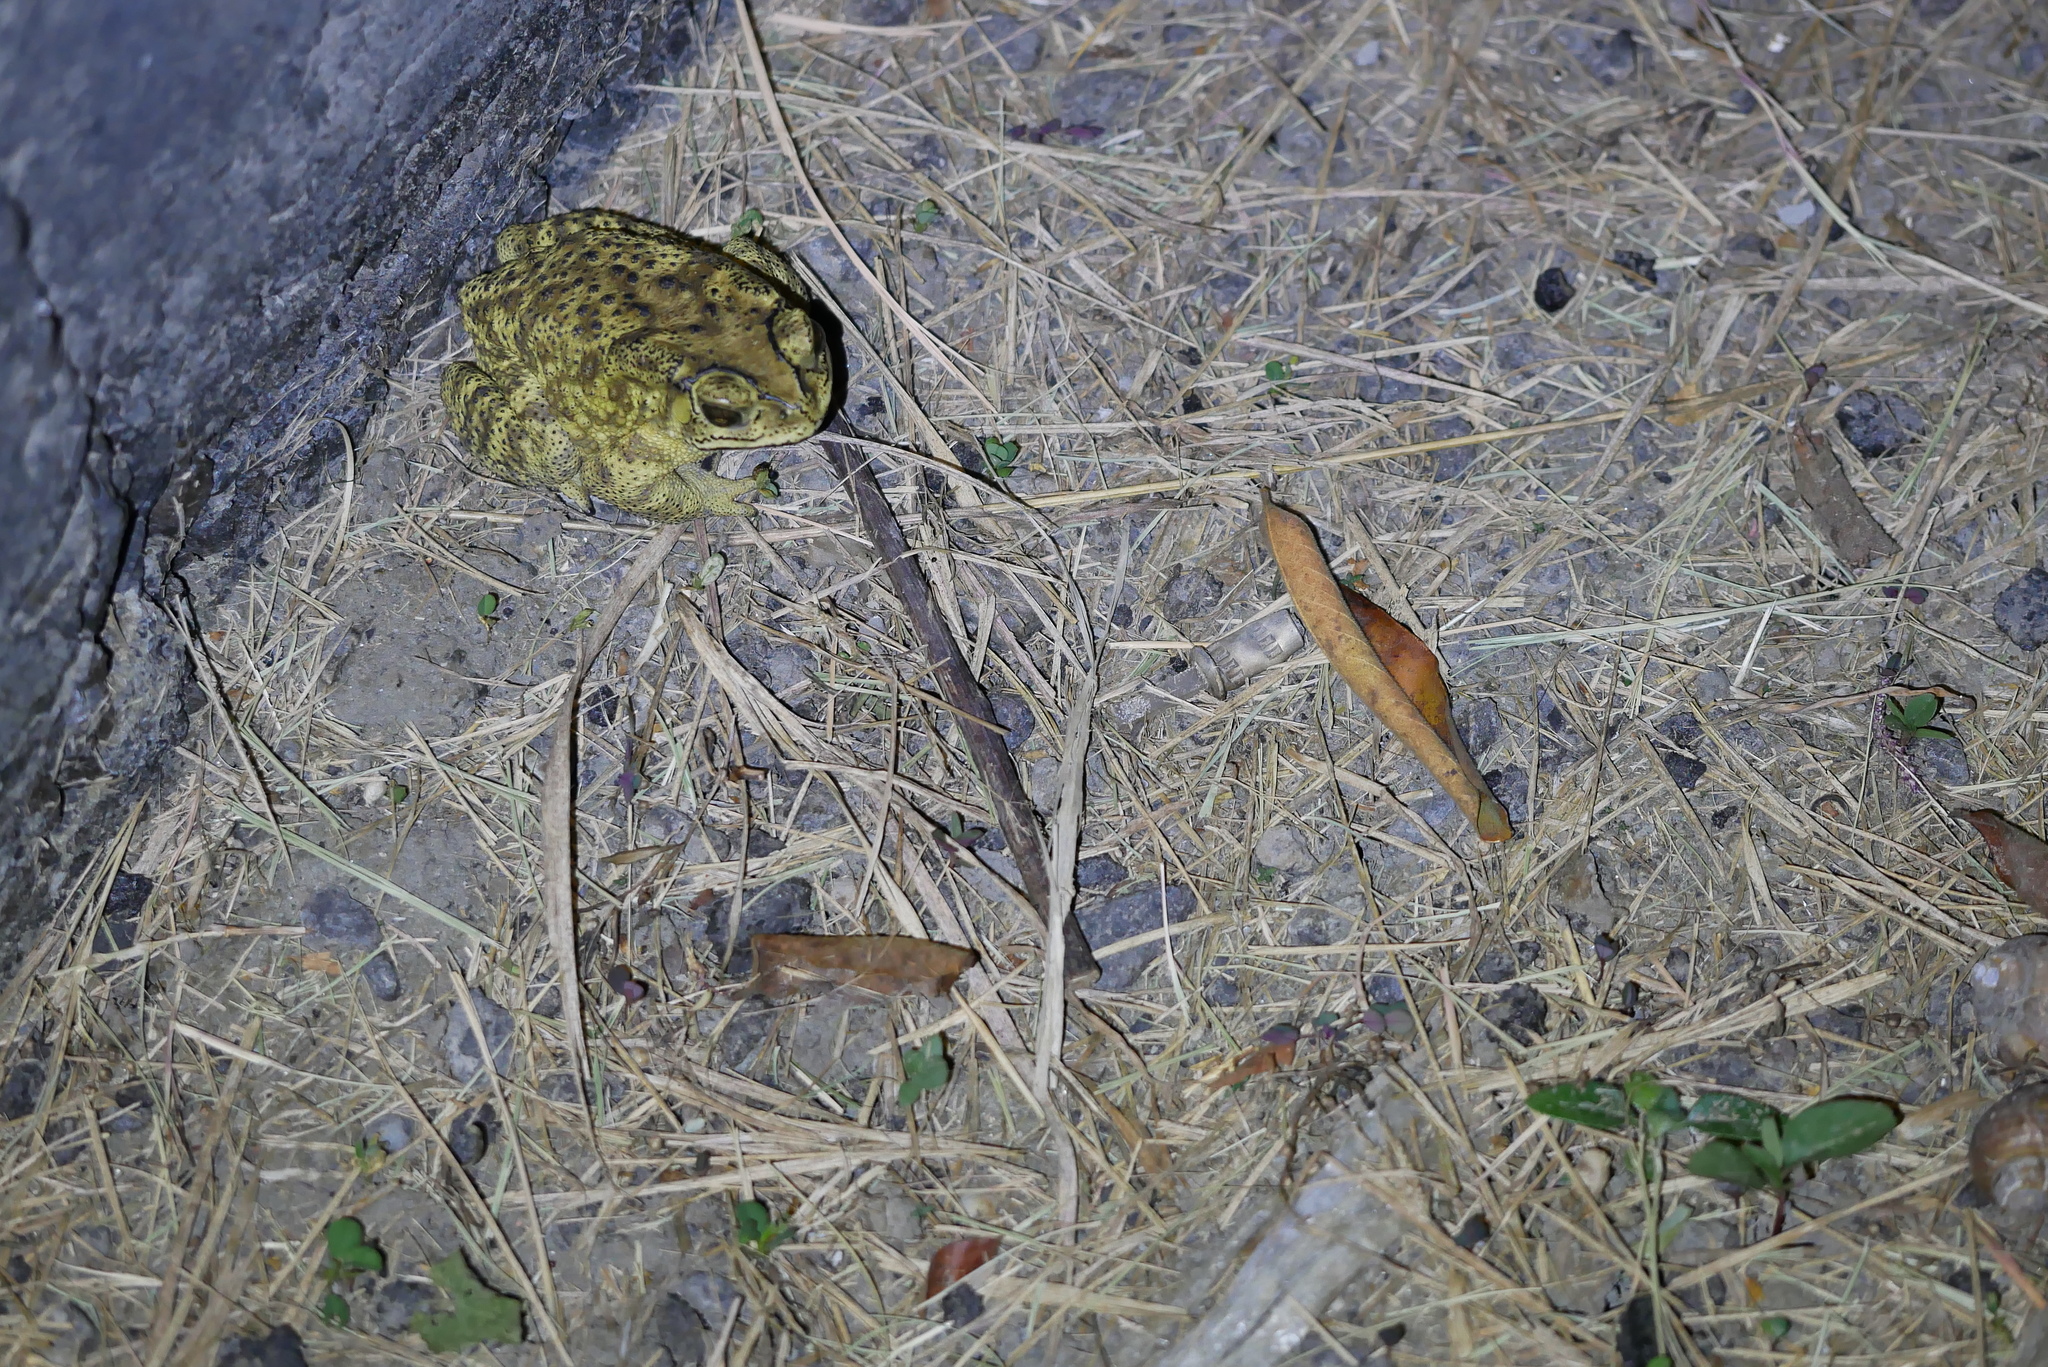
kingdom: Animalia
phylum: Chordata
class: Amphibia
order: Anura
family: Bufonidae
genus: Duttaphrynus
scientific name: Duttaphrynus melanostictus
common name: Common sunda toad
